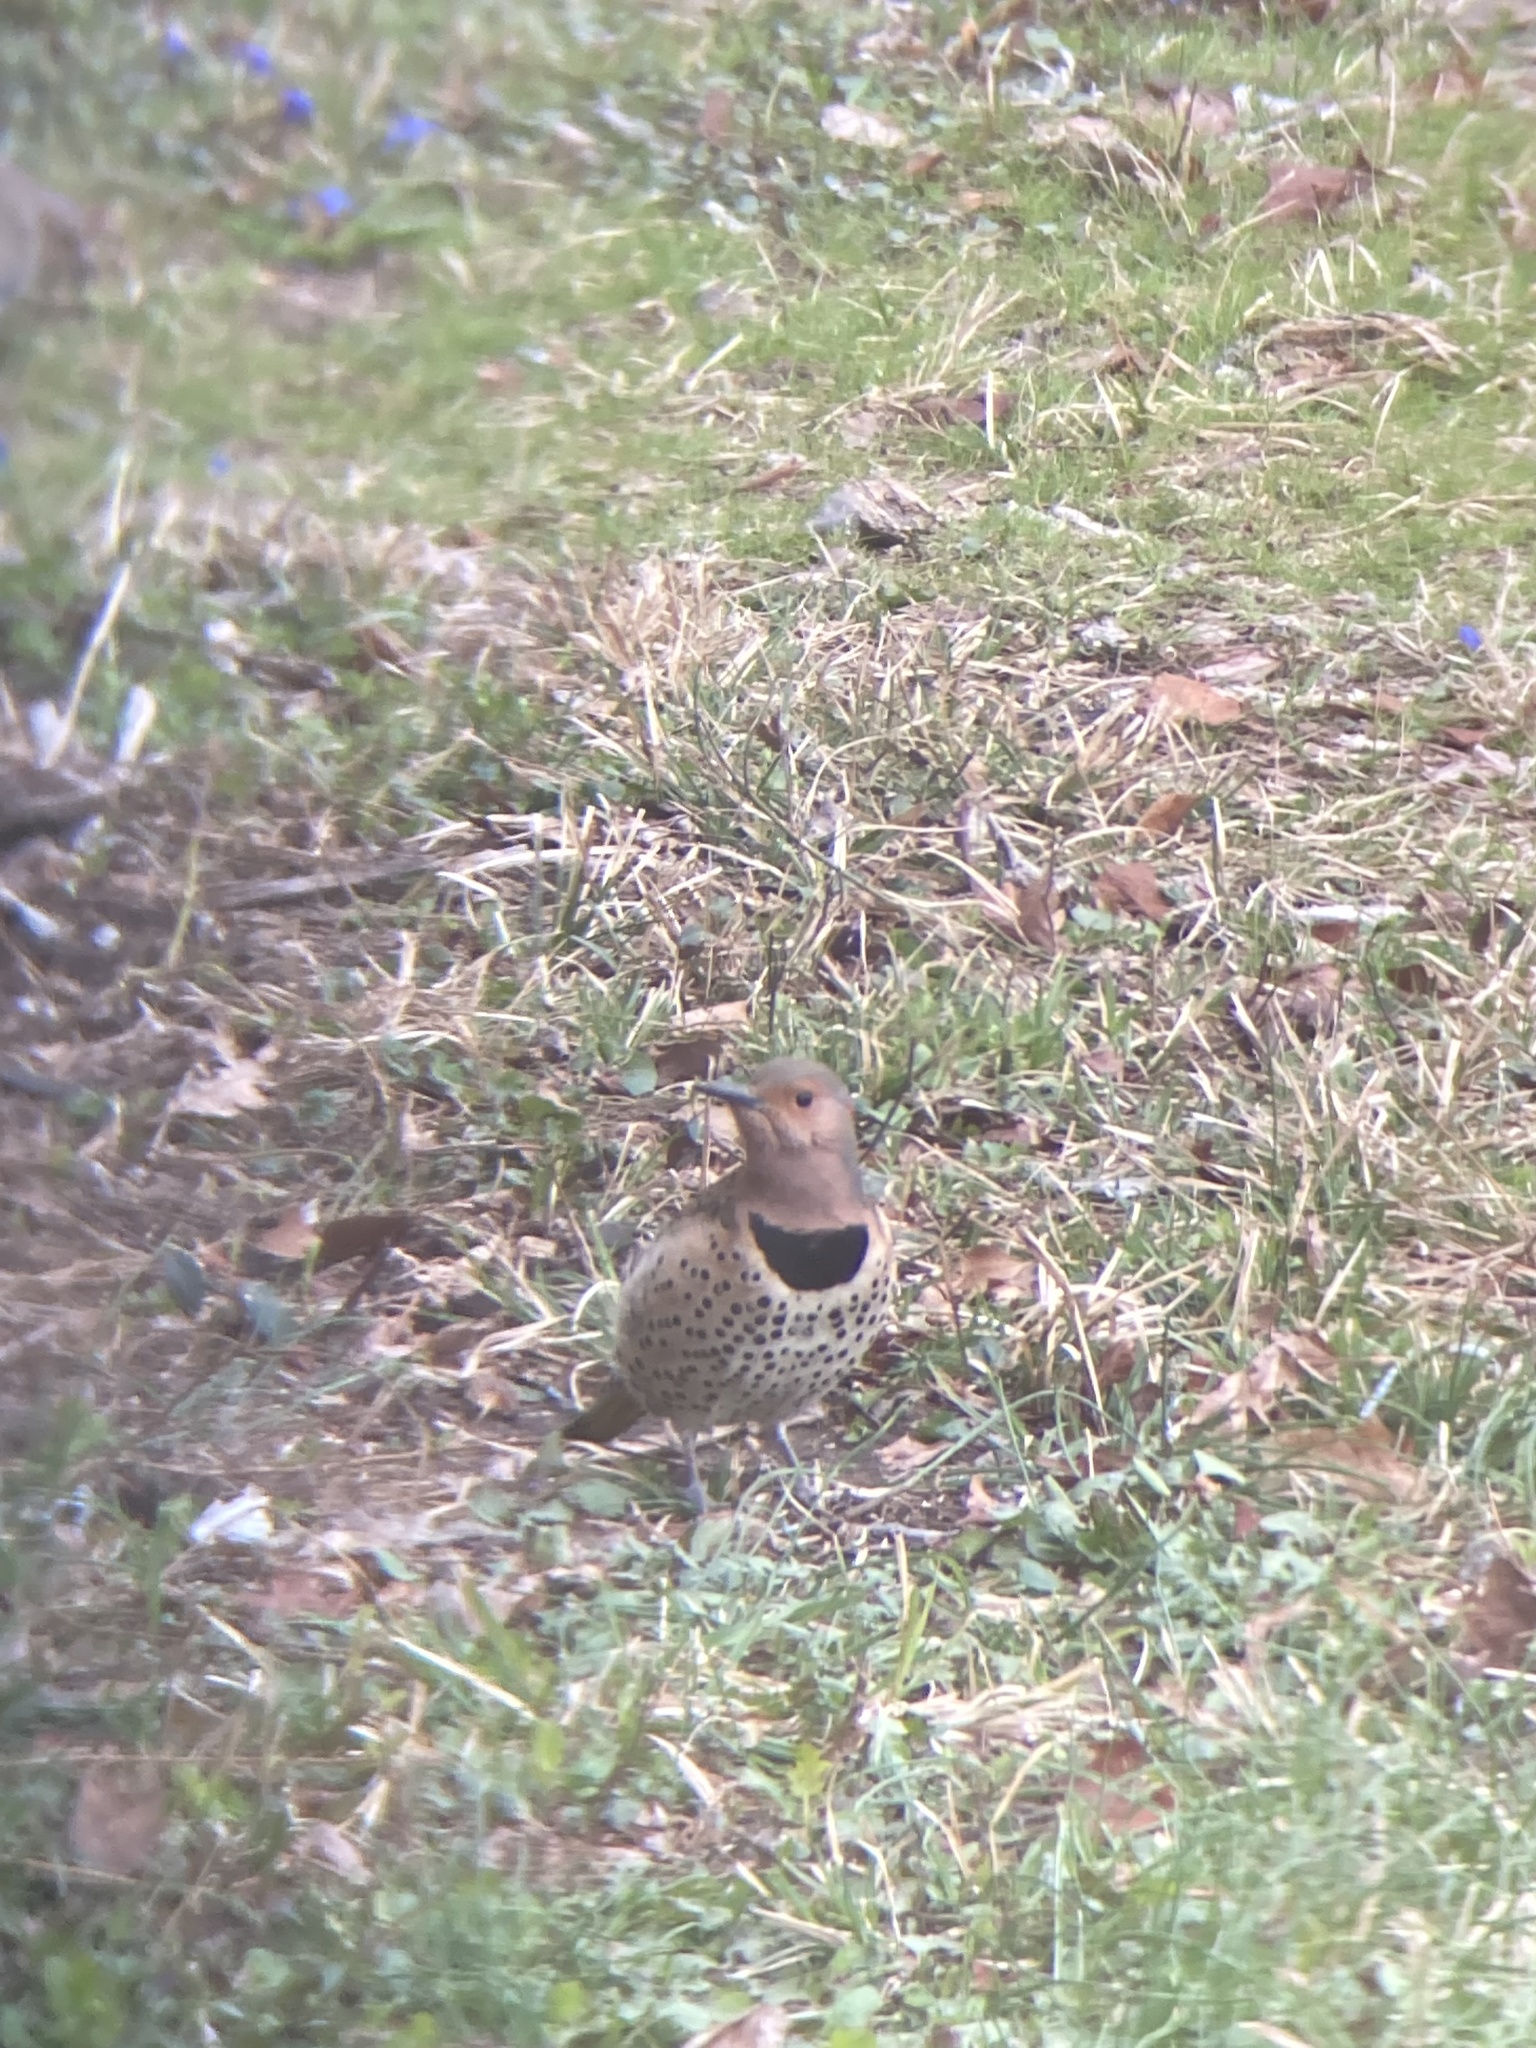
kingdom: Animalia
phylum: Chordata
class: Aves
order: Piciformes
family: Picidae
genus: Colaptes
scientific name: Colaptes auratus
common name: Northern flicker
